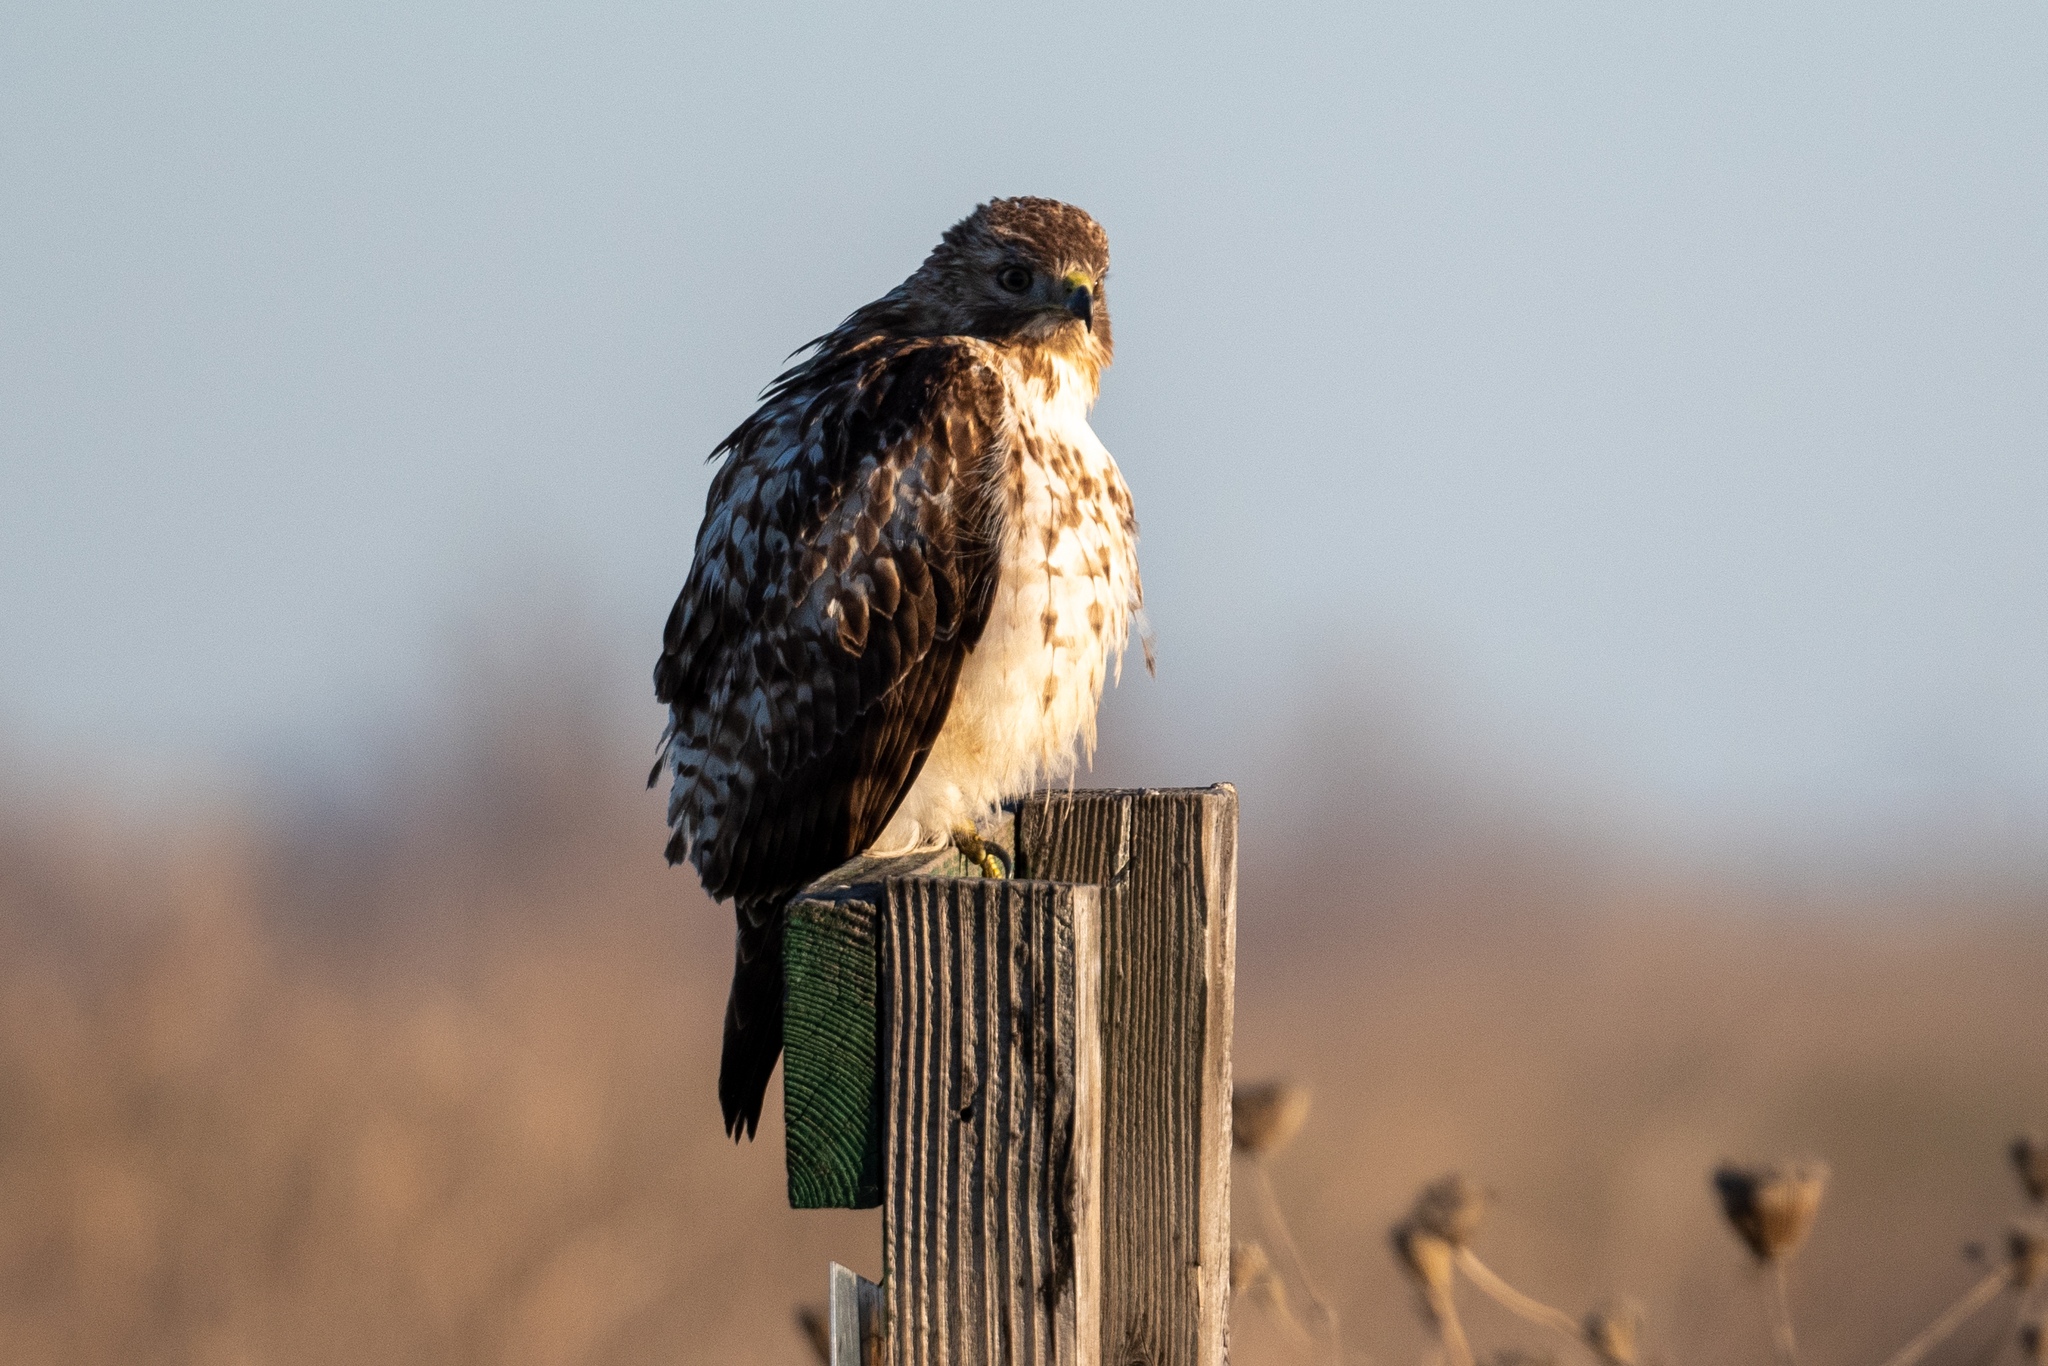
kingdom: Animalia
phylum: Chordata
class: Aves
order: Accipitriformes
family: Accipitridae
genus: Buteo
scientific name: Buteo jamaicensis
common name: Red-tailed hawk
